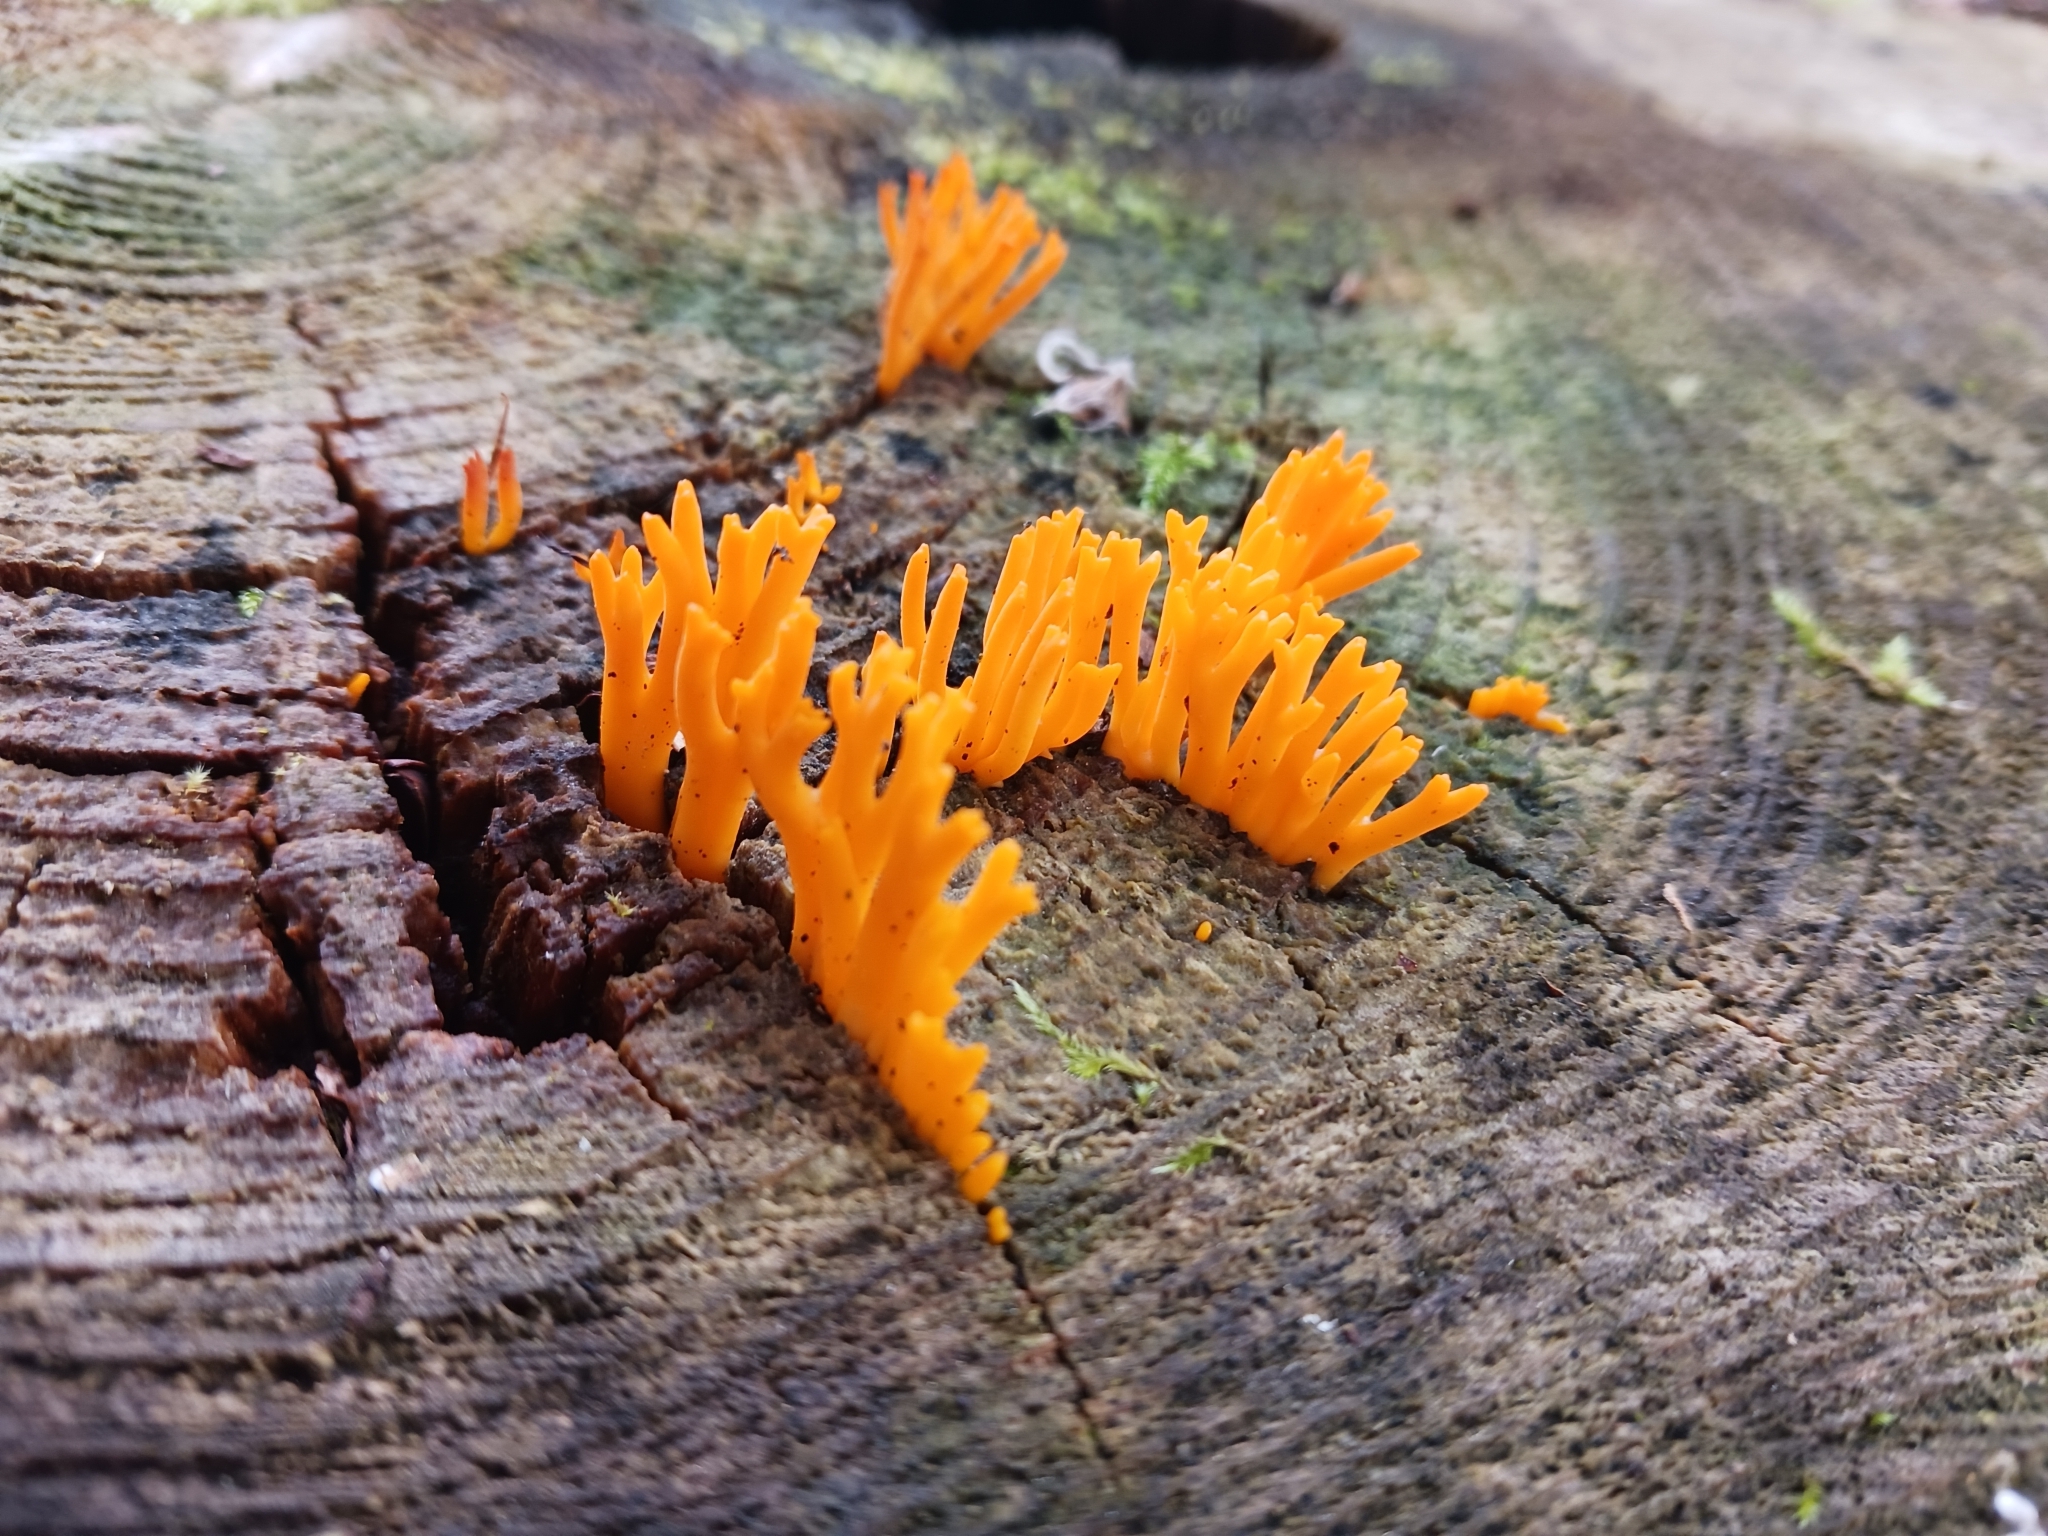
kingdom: Fungi
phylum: Basidiomycota
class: Dacrymycetes
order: Dacrymycetales
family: Dacrymycetaceae
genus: Calocera
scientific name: Calocera viscosa
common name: Yellow stagshorn
